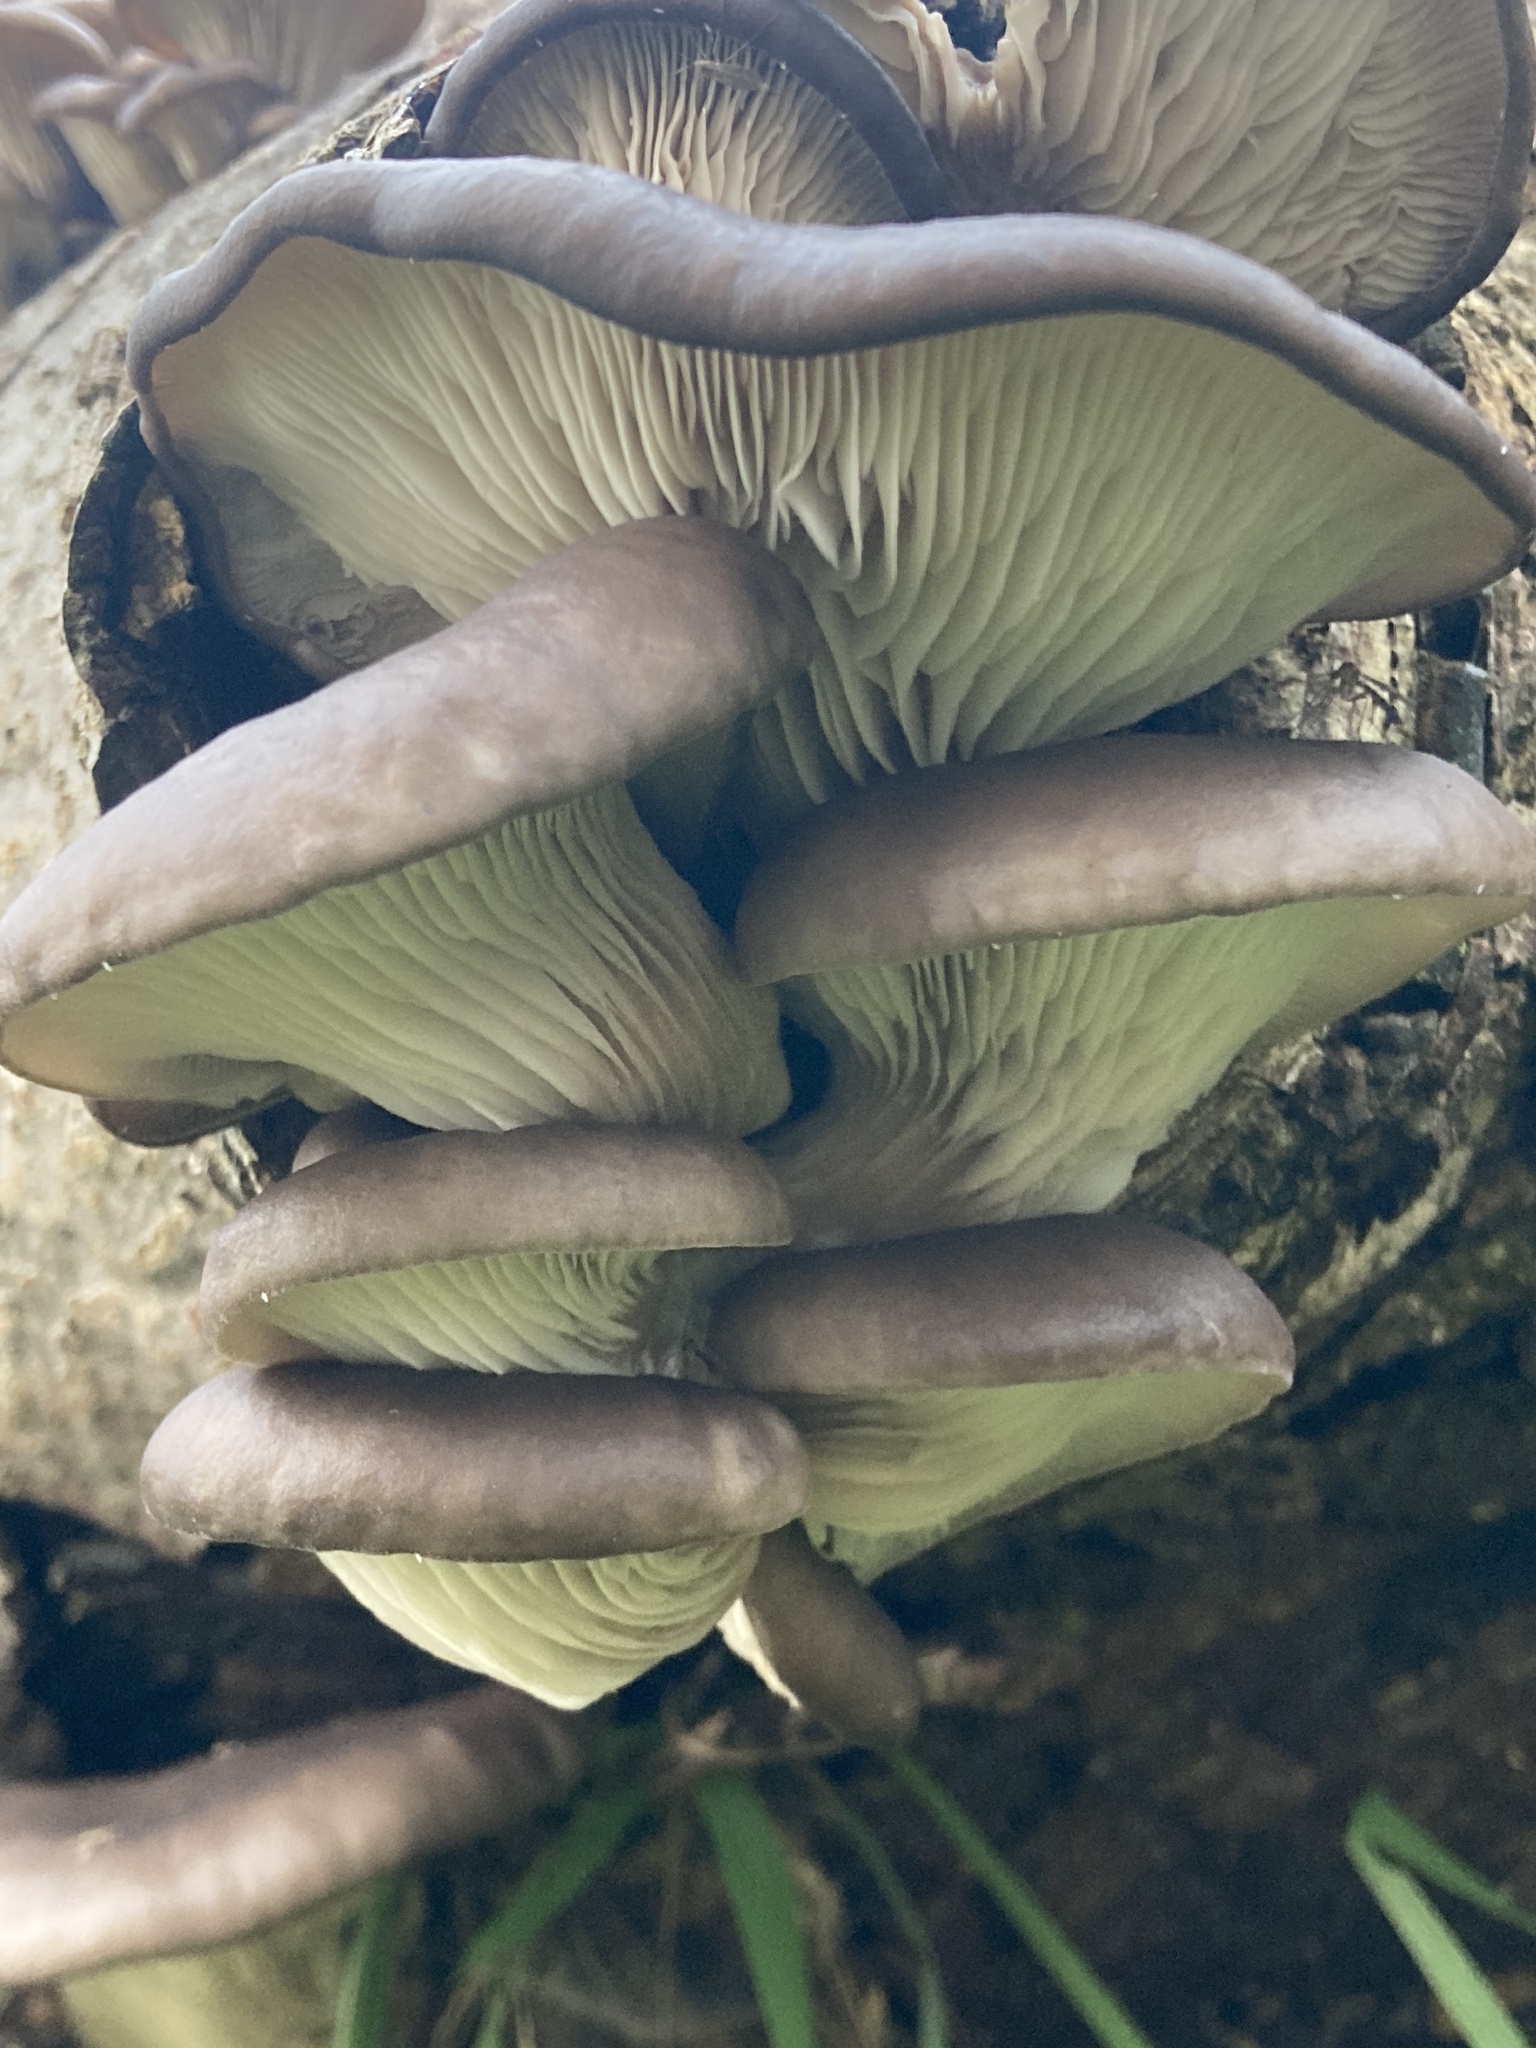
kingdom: Fungi
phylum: Basidiomycota
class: Agaricomycetes
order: Agaricales
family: Pleurotaceae
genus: Pleurotus
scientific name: Pleurotus ostreatus
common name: Oyster mushroom
